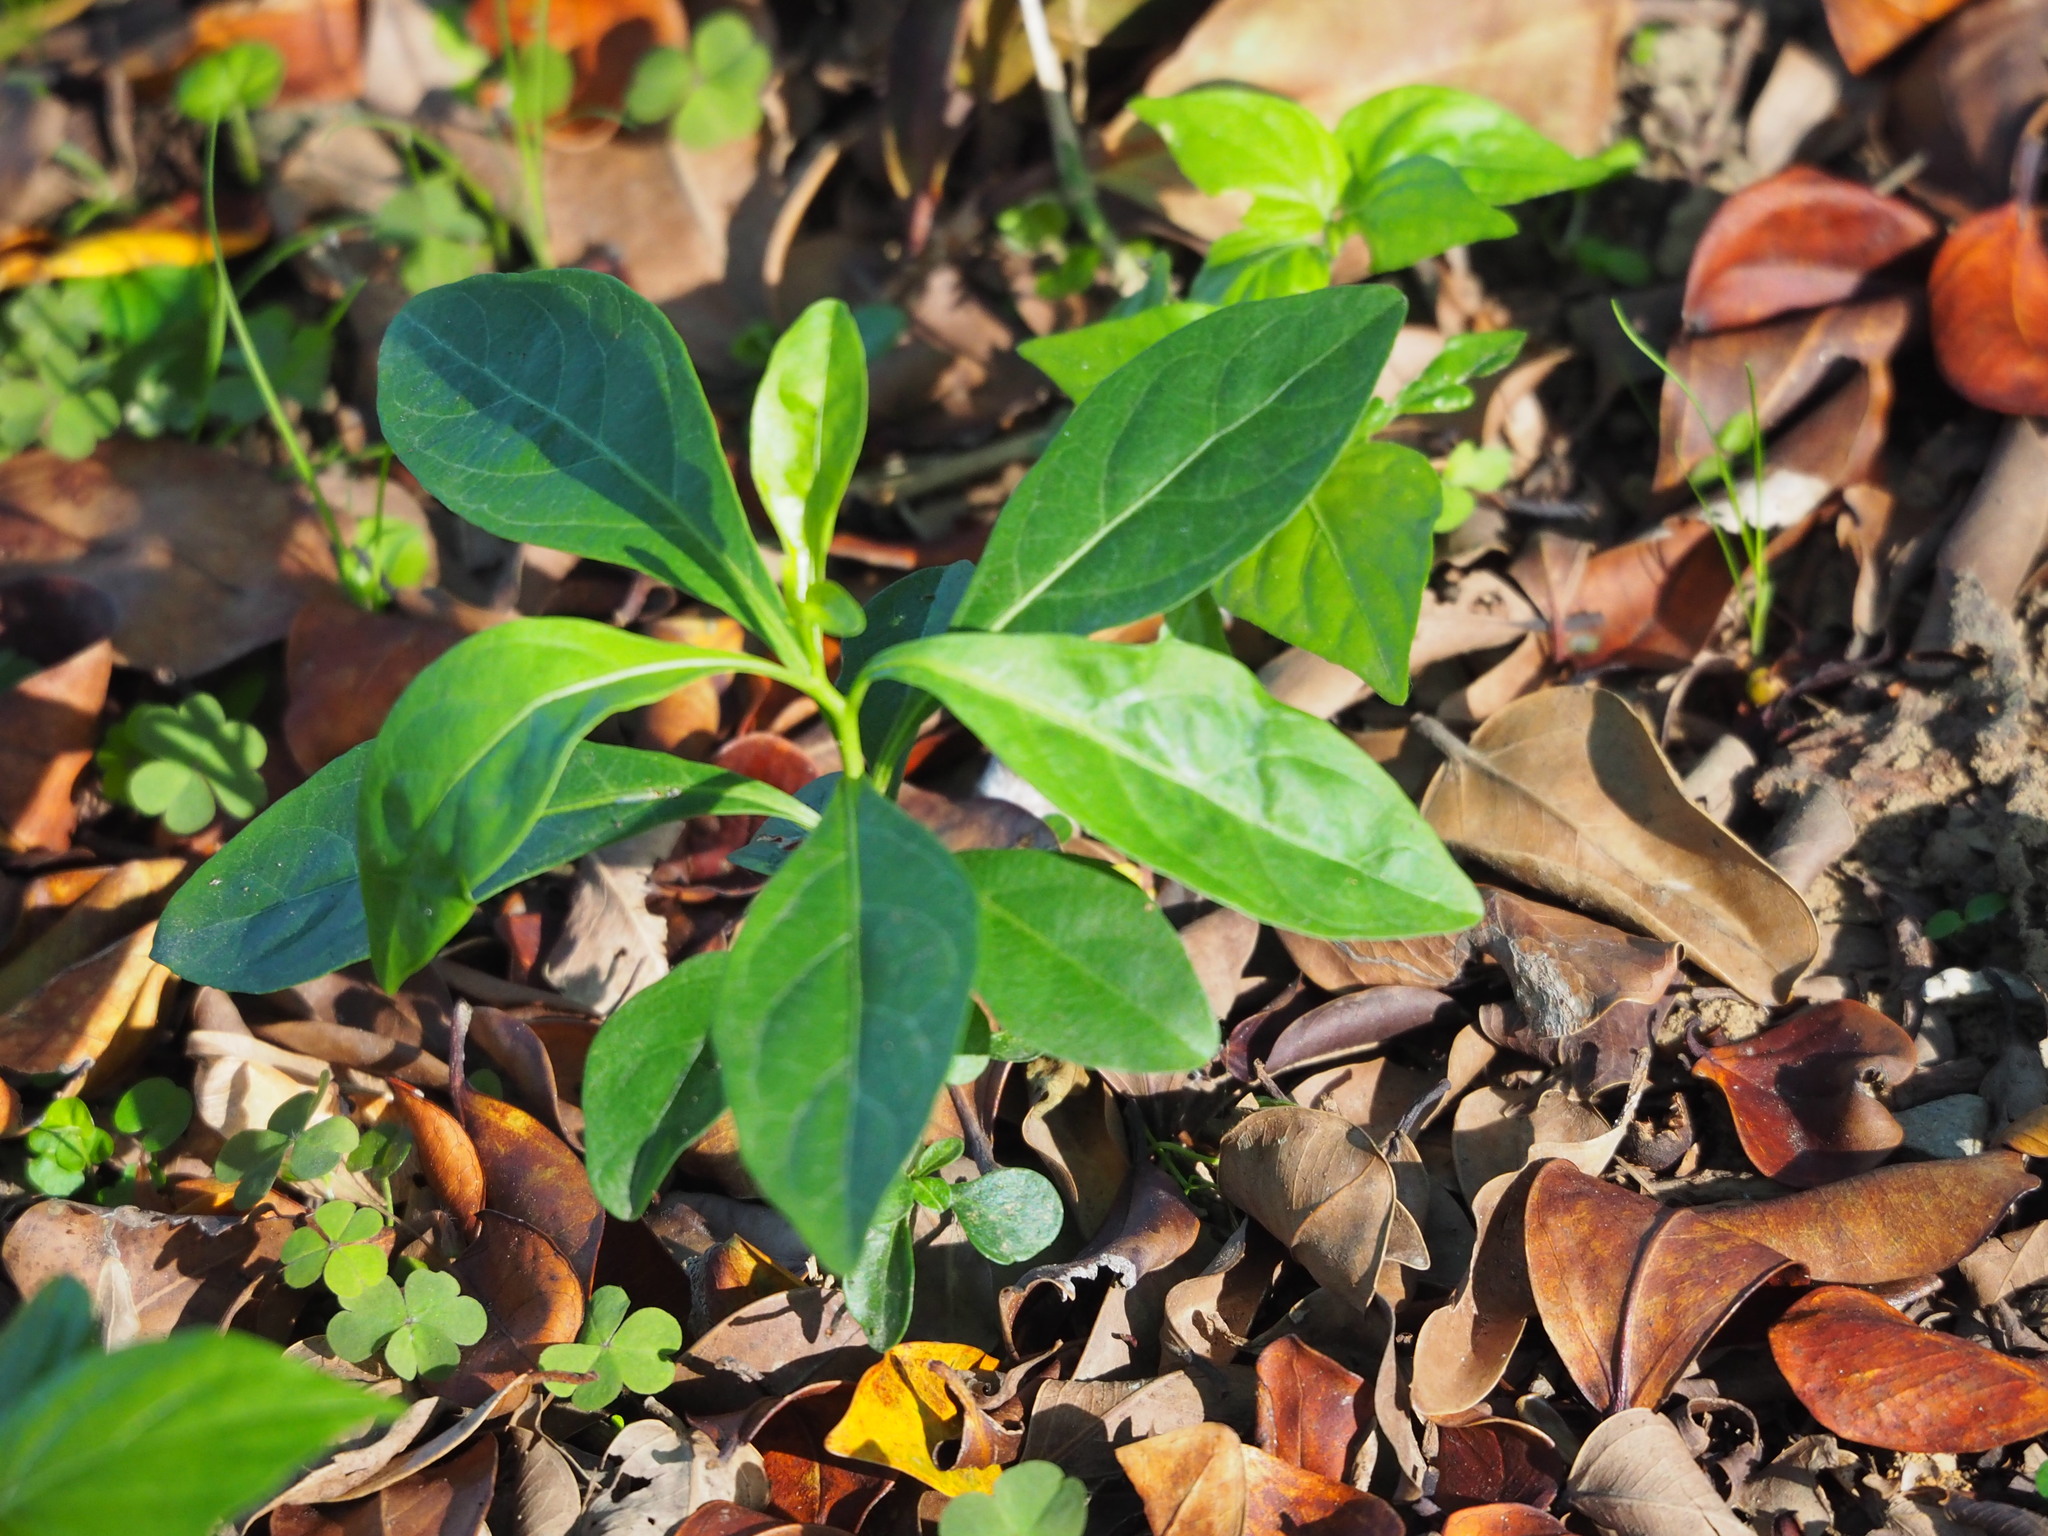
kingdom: Plantae
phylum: Tracheophyta
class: Magnoliopsida
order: Solanales
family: Solanaceae
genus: Solanum
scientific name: Solanum diphyllum
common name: Twoleaf nightshade
